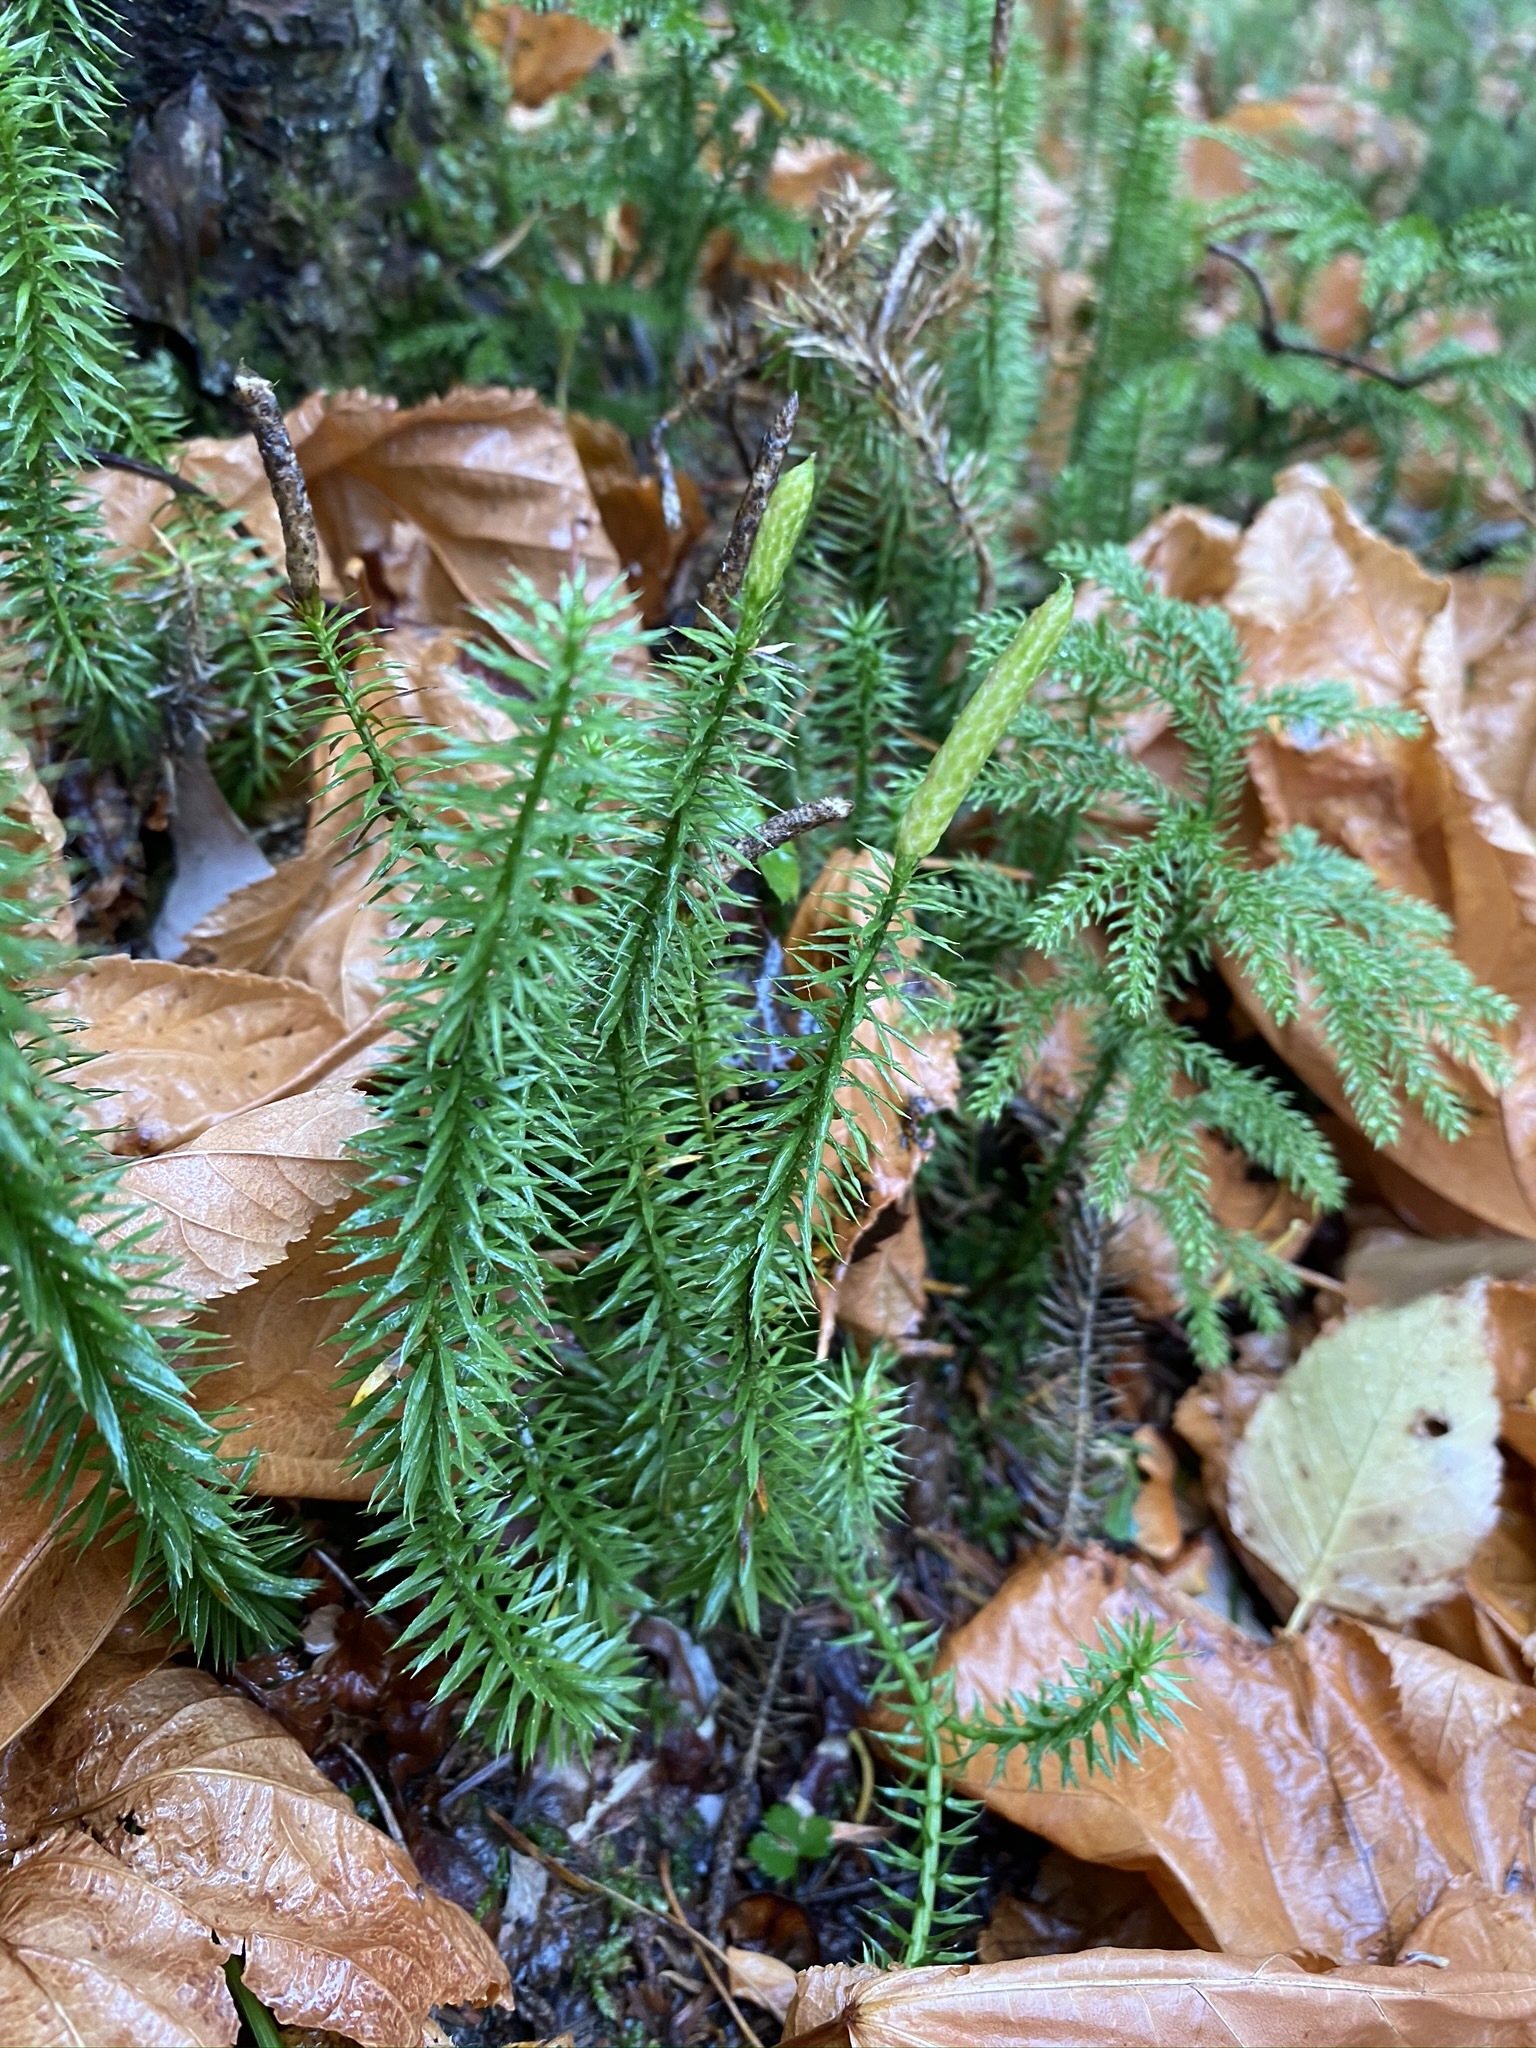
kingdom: Plantae
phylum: Tracheophyta
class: Lycopodiopsida
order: Lycopodiales
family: Lycopodiaceae
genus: Spinulum
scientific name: Spinulum annotinum
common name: Interrupted club-moss
